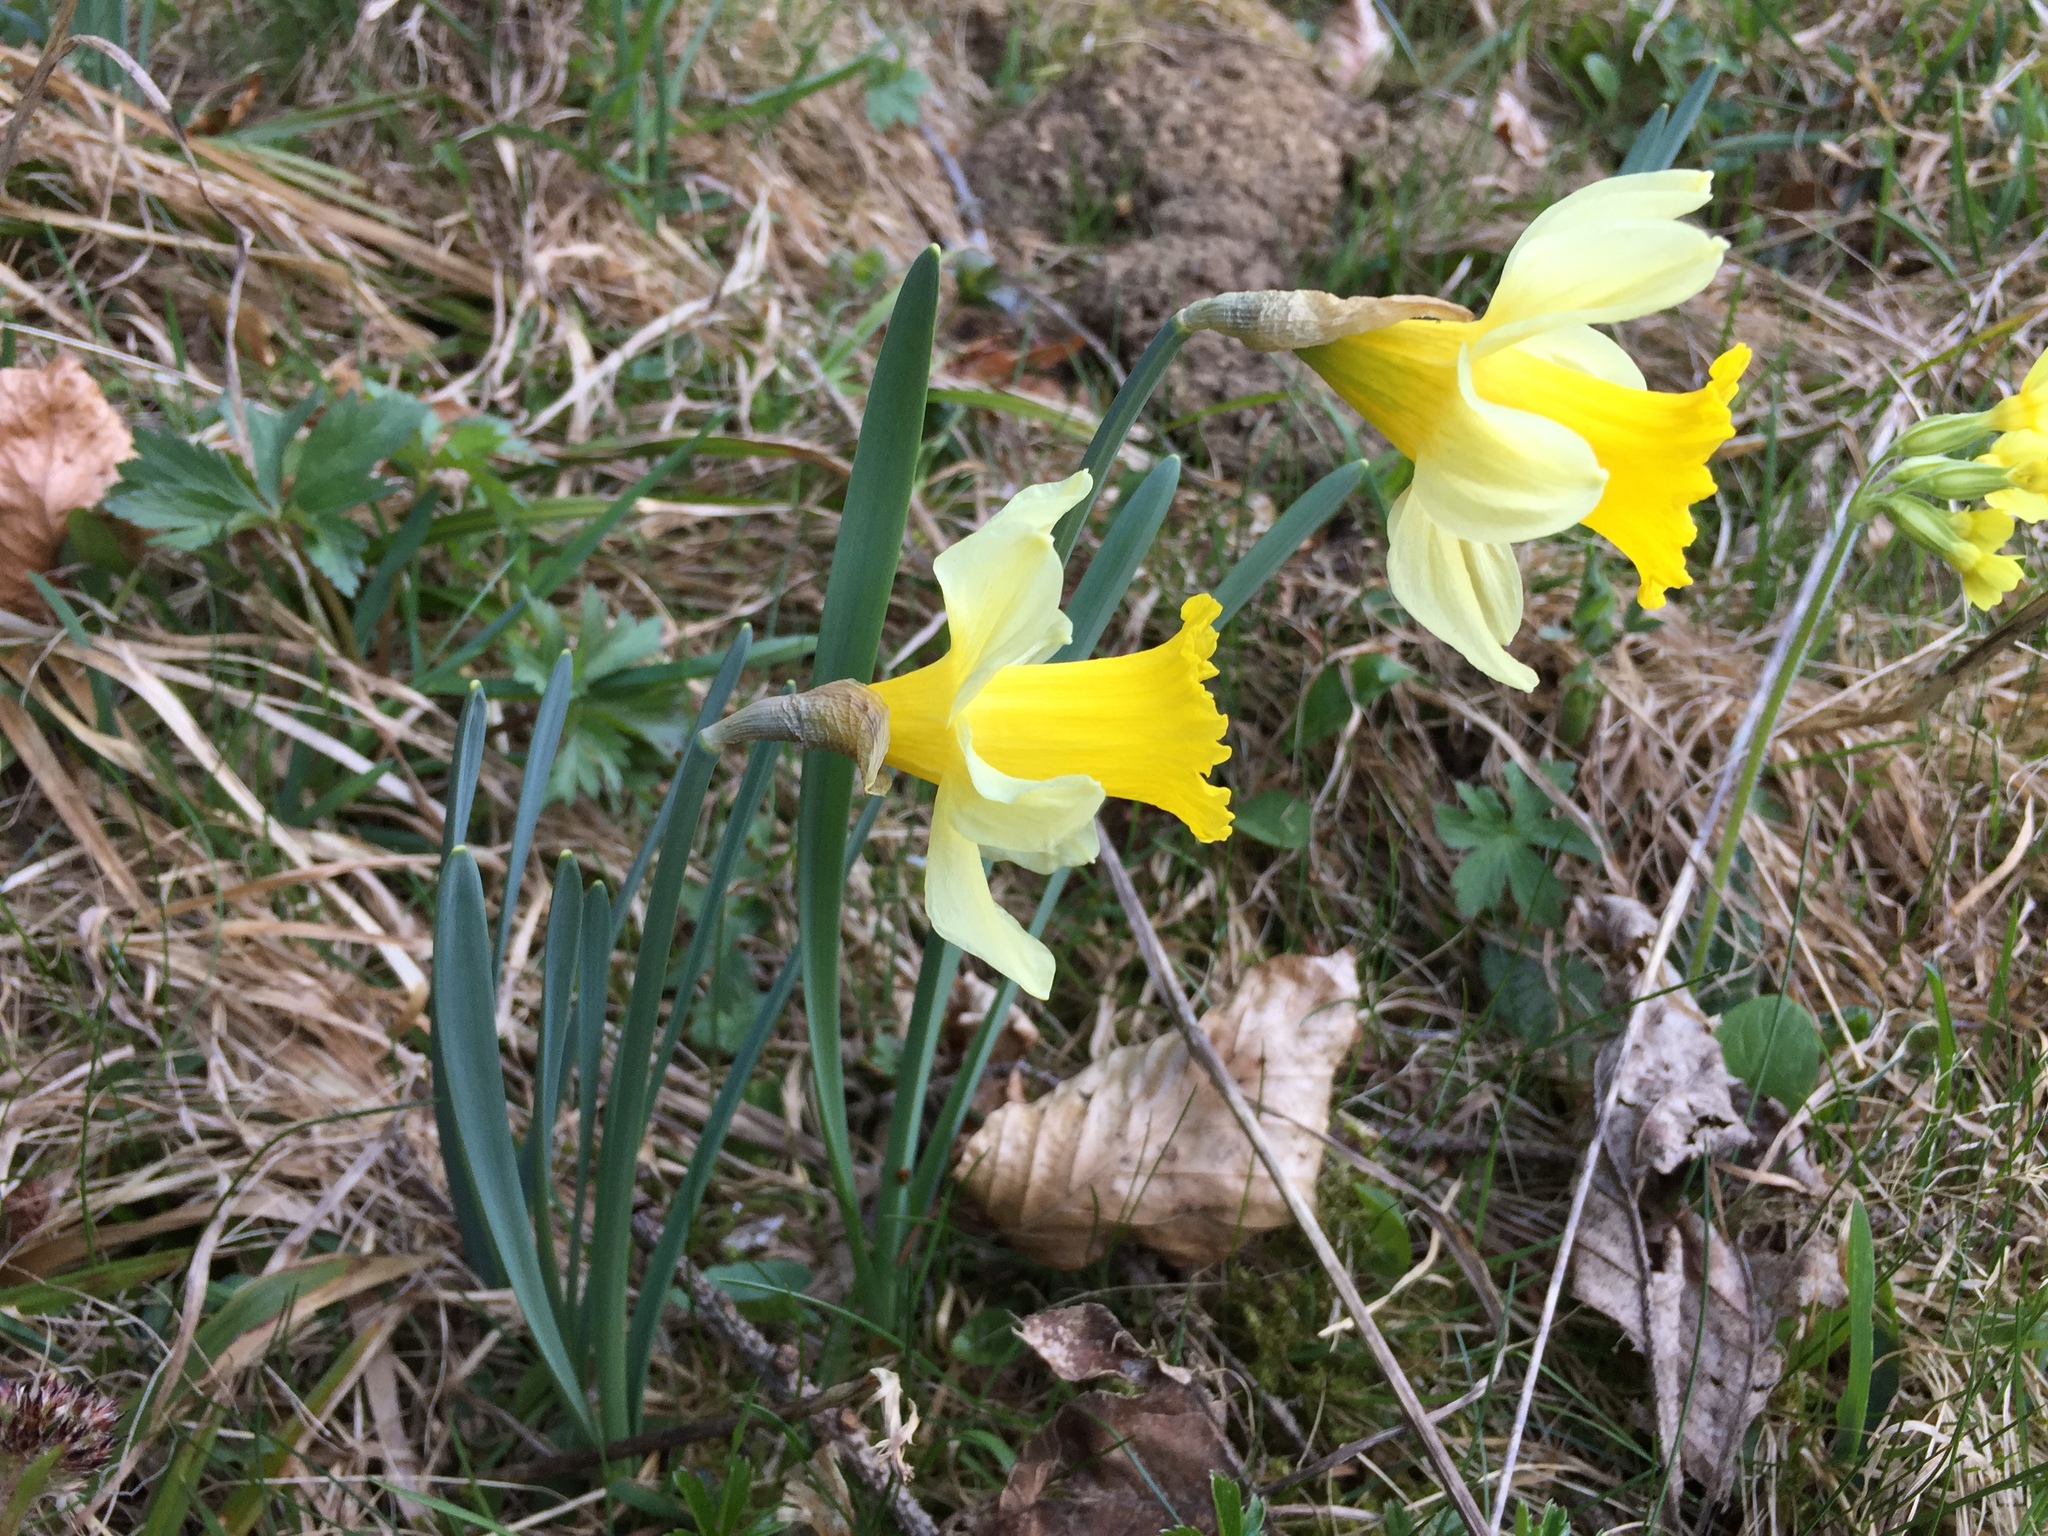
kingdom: Plantae
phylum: Tracheophyta
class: Liliopsida
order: Asparagales
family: Amaryllidaceae
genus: Narcissus
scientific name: Narcissus pseudonarcissus
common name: Daffodil
